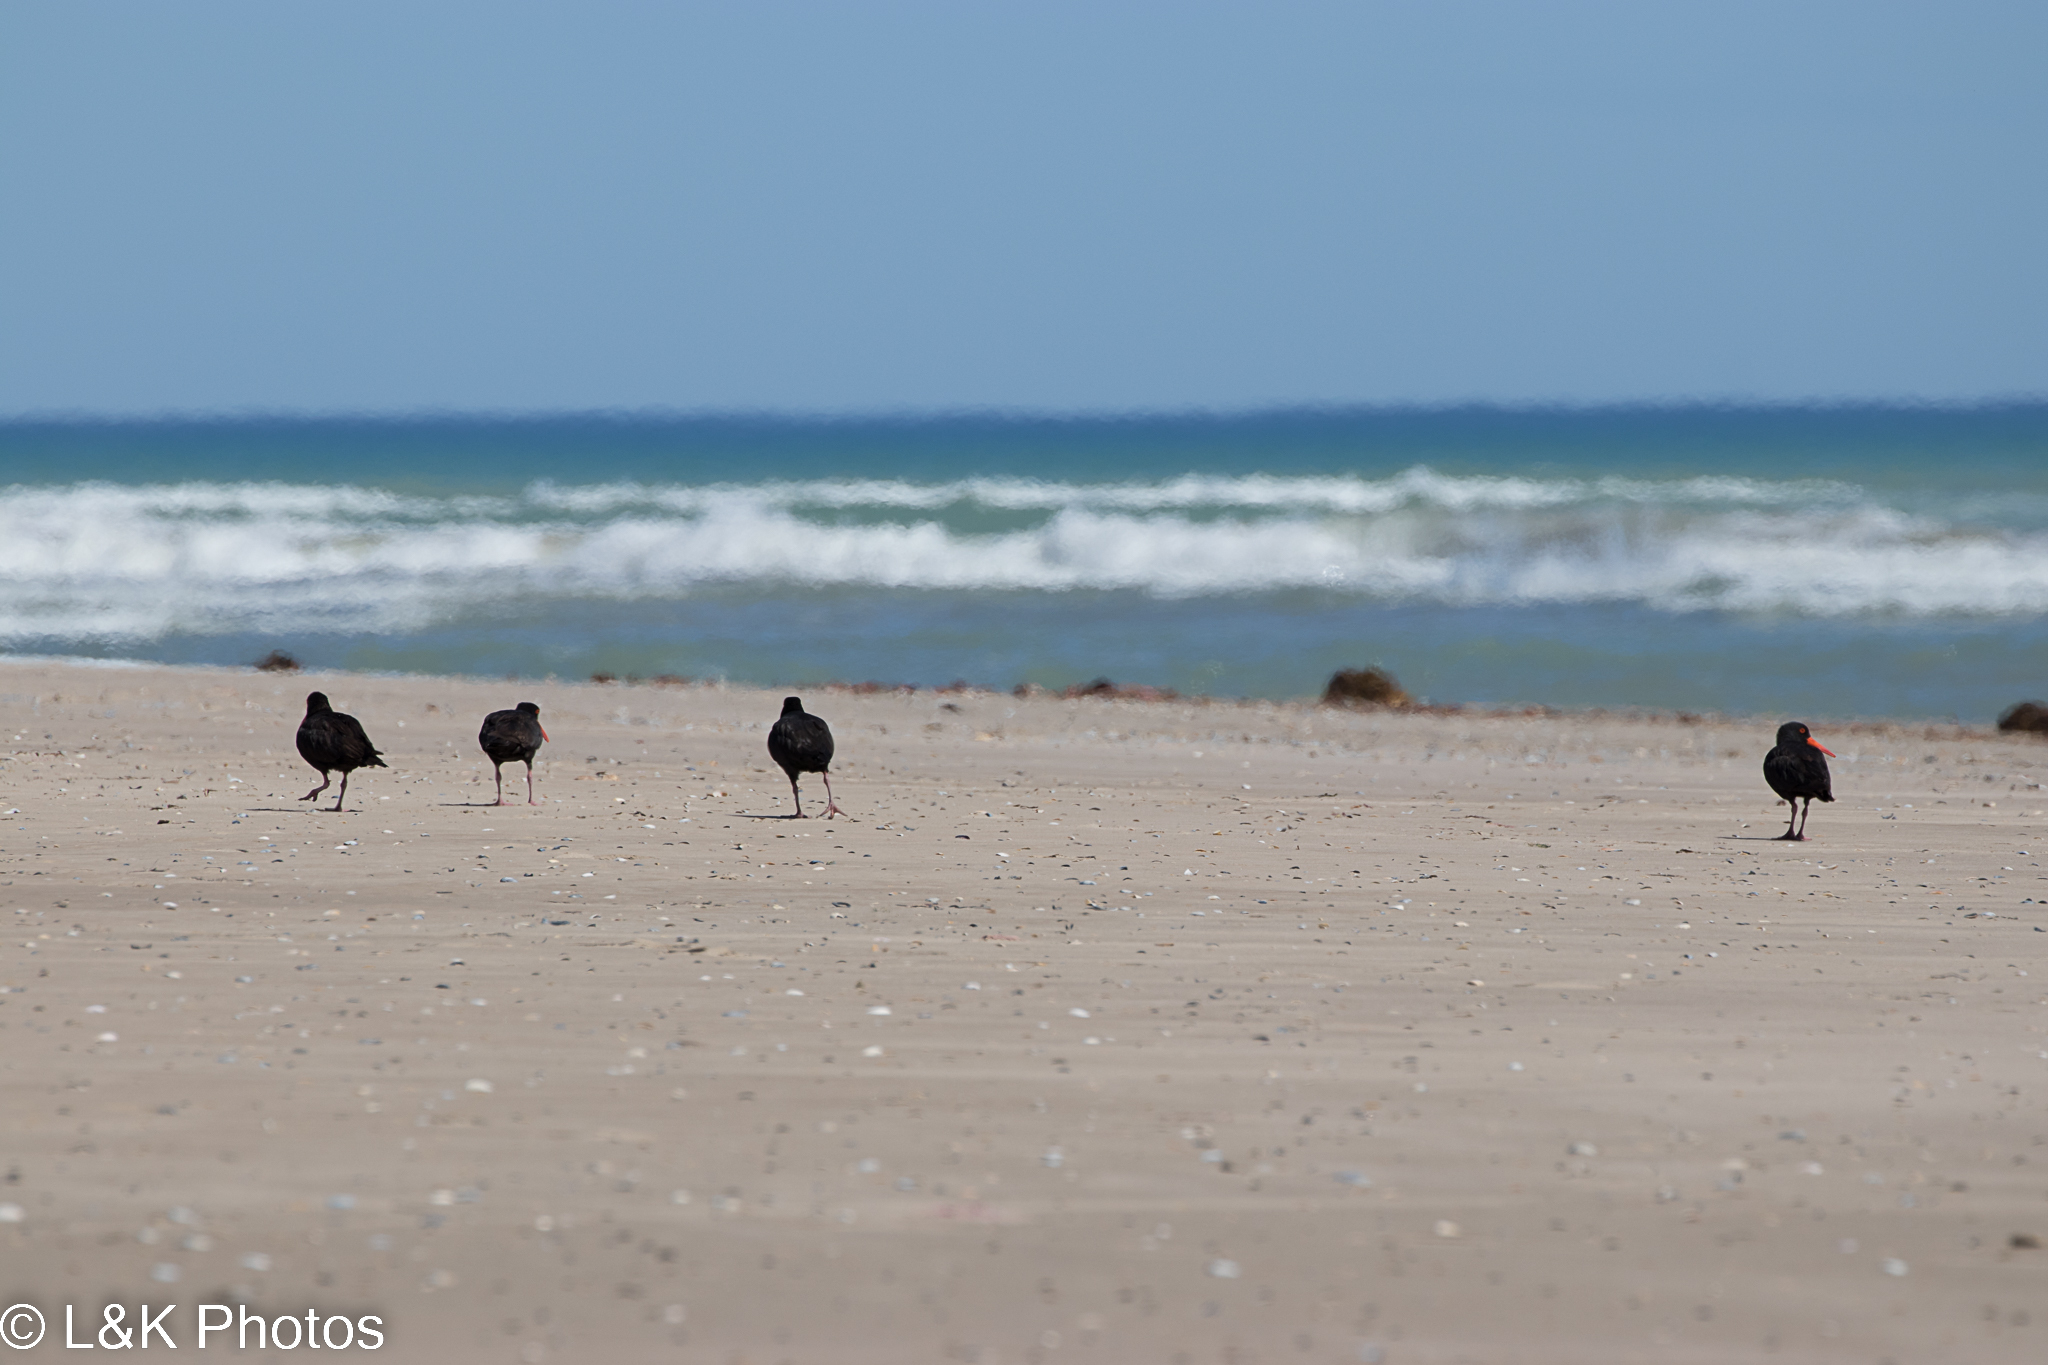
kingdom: Animalia
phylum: Chordata
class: Aves
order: Charadriiformes
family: Haematopodidae
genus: Haematopus
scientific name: Haematopus fuliginosus
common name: Sooty oystercatcher
